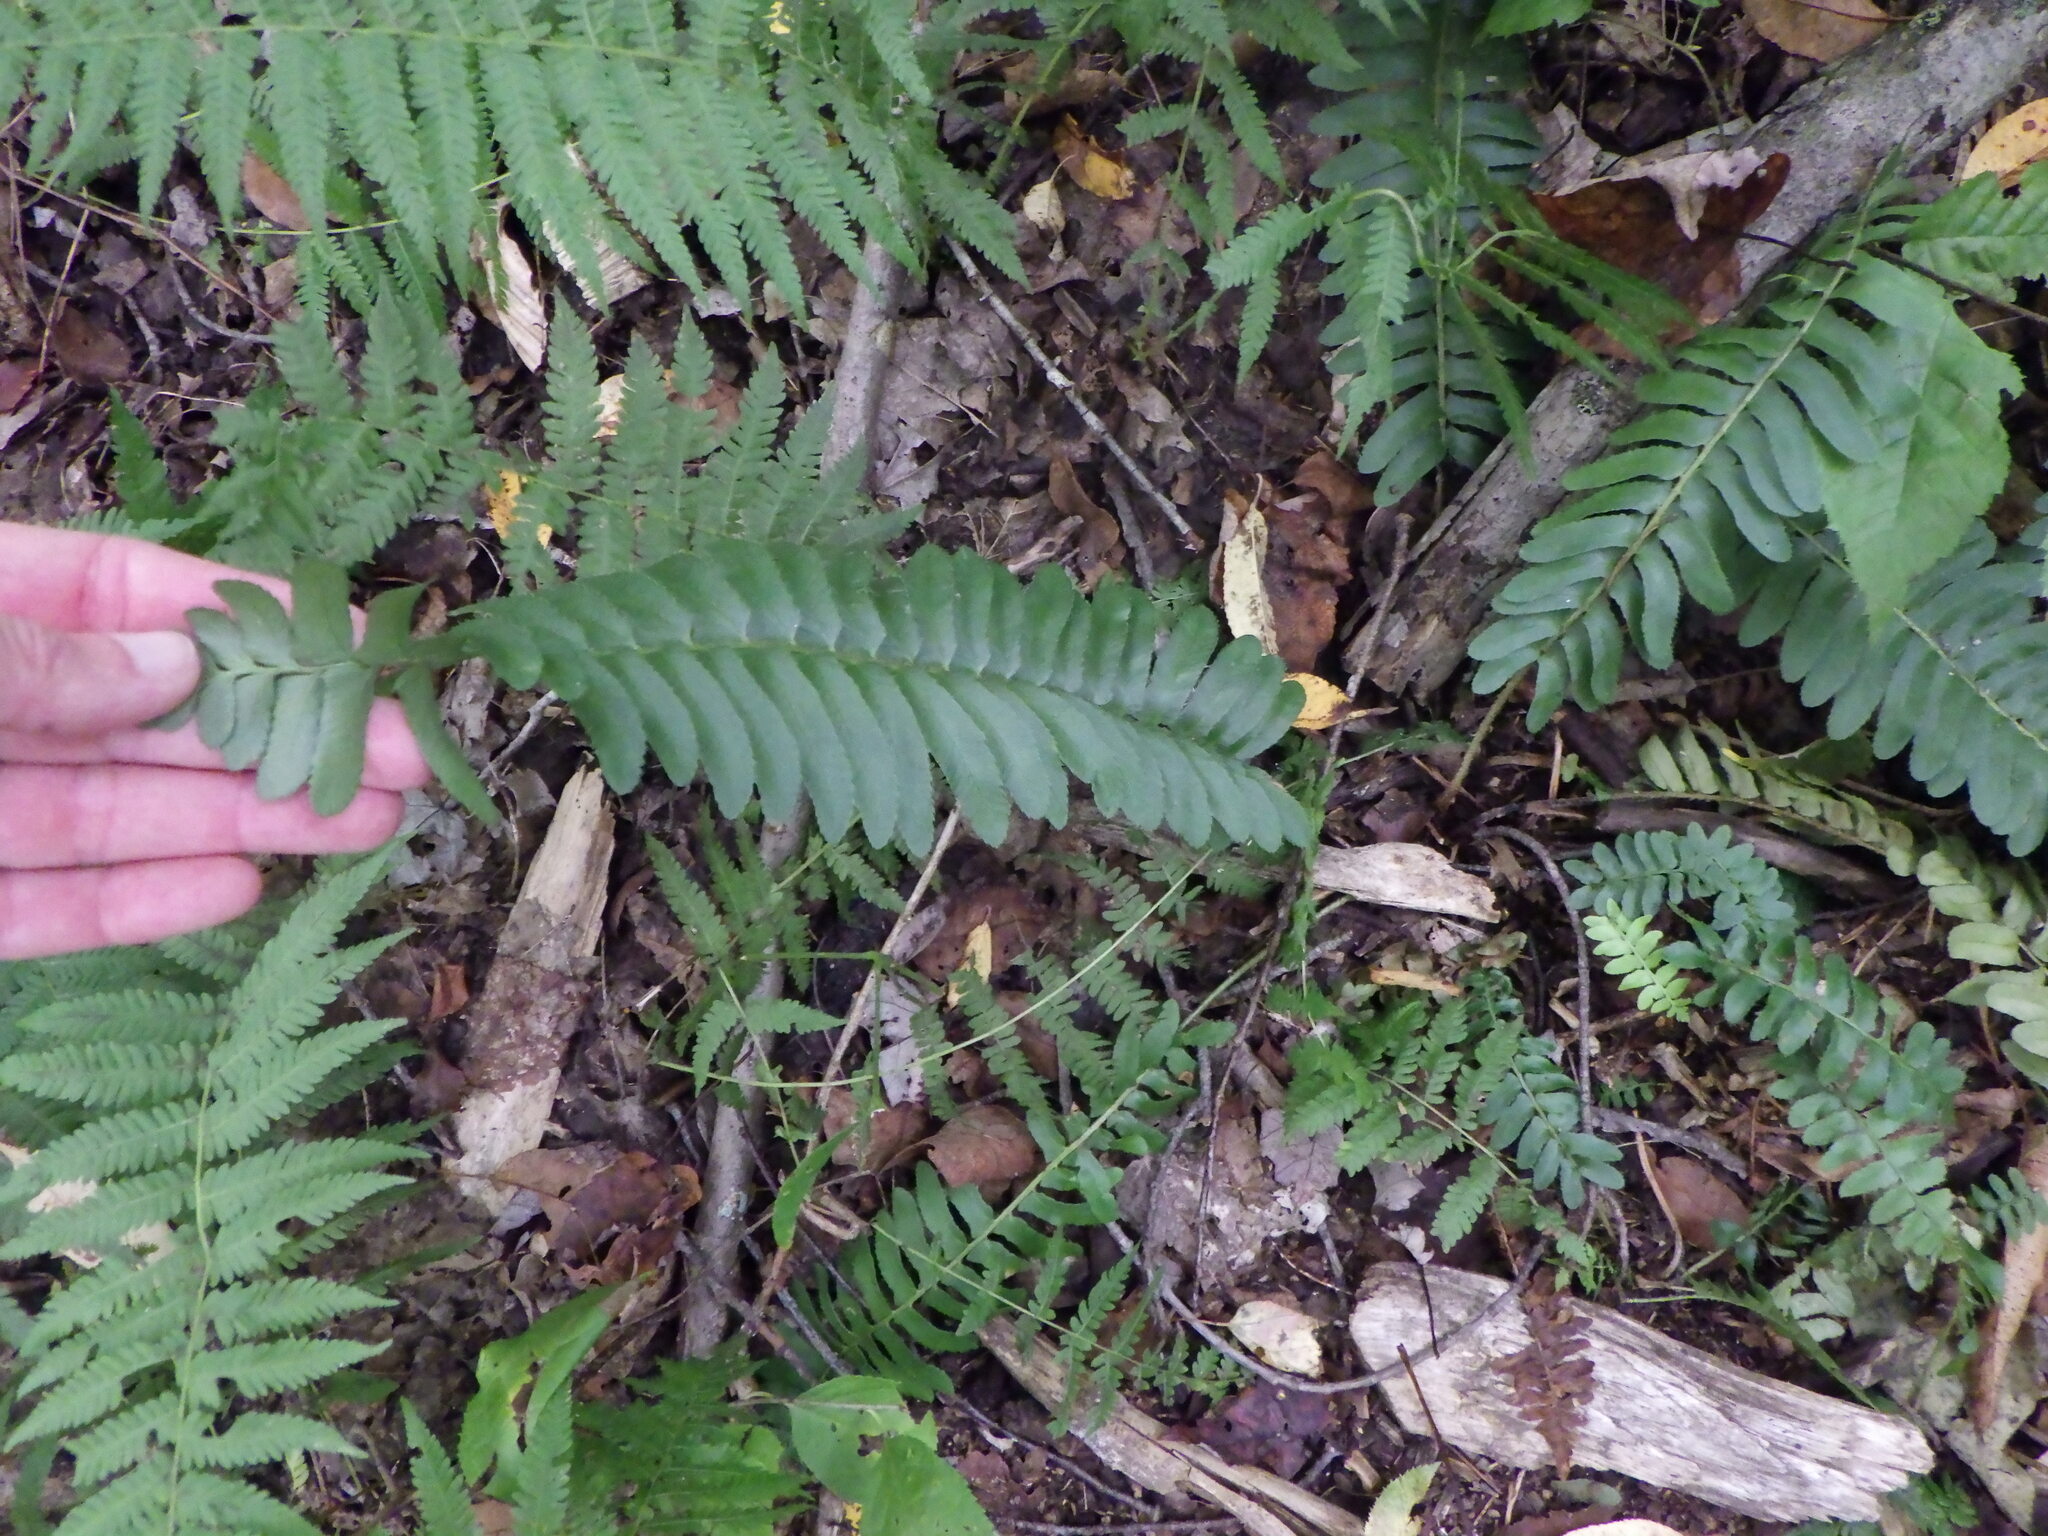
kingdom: Plantae
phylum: Tracheophyta
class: Polypodiopsida
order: Polypodiales
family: Dryopteridaceae
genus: Polystichum
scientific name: Polystichum acrostichoides
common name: Christmas fern
